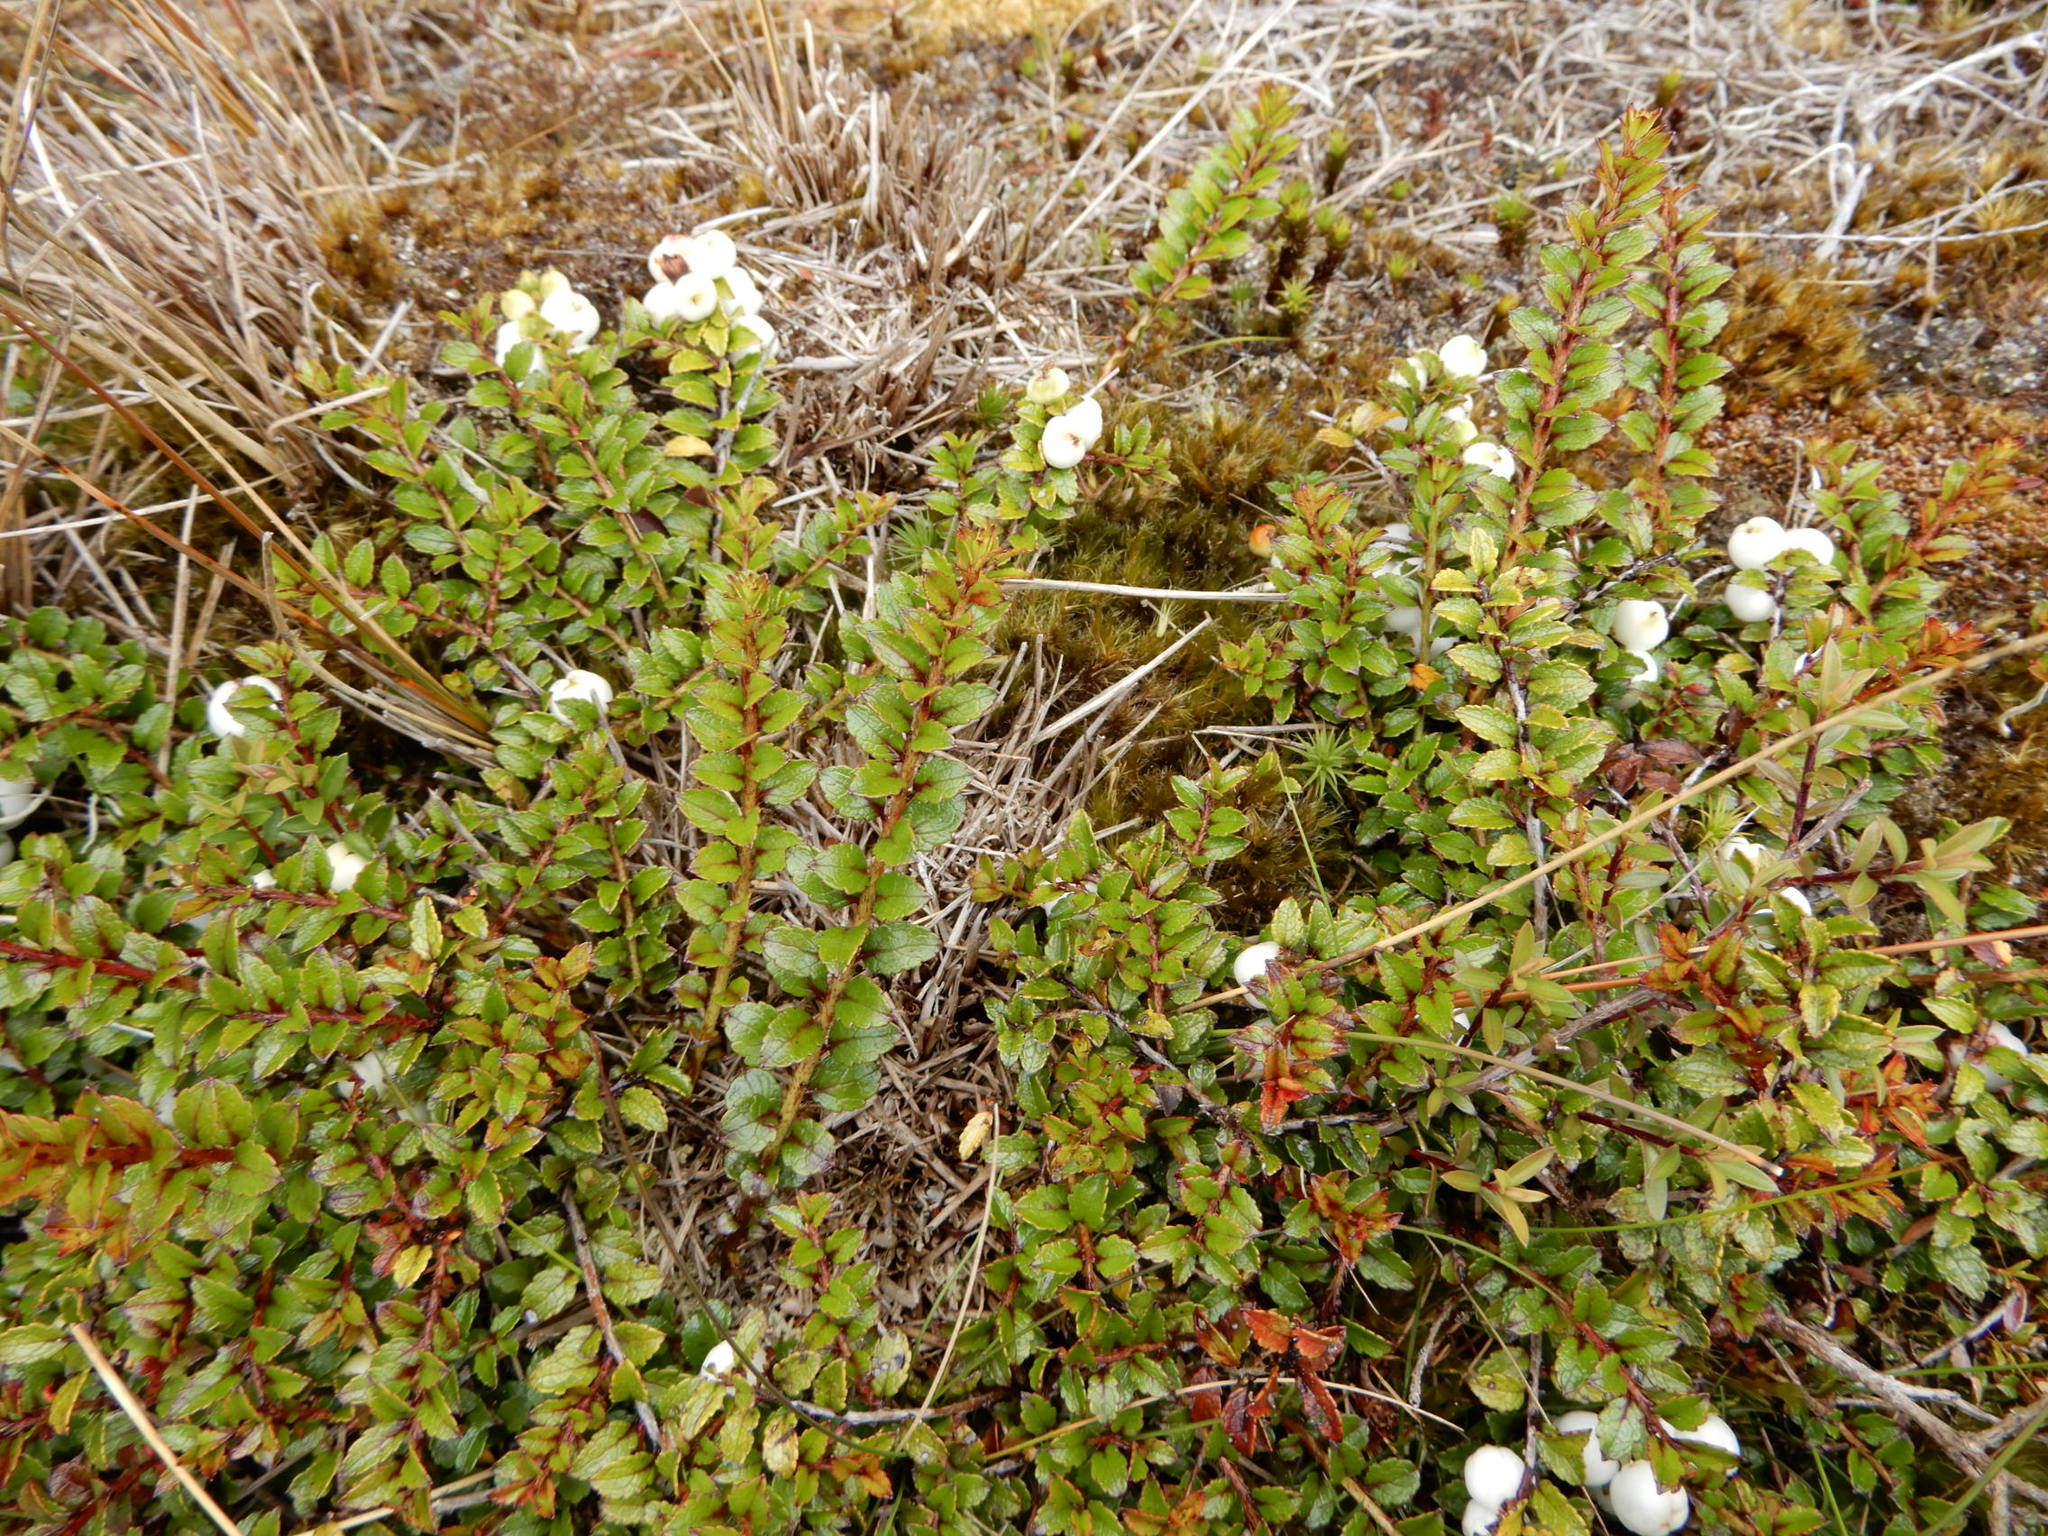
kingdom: Plantae
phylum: Tracheophyta
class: Magnoliopsida
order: Ericales
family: Ericaceae
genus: Gaultheria
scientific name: Gaultheria depressa
